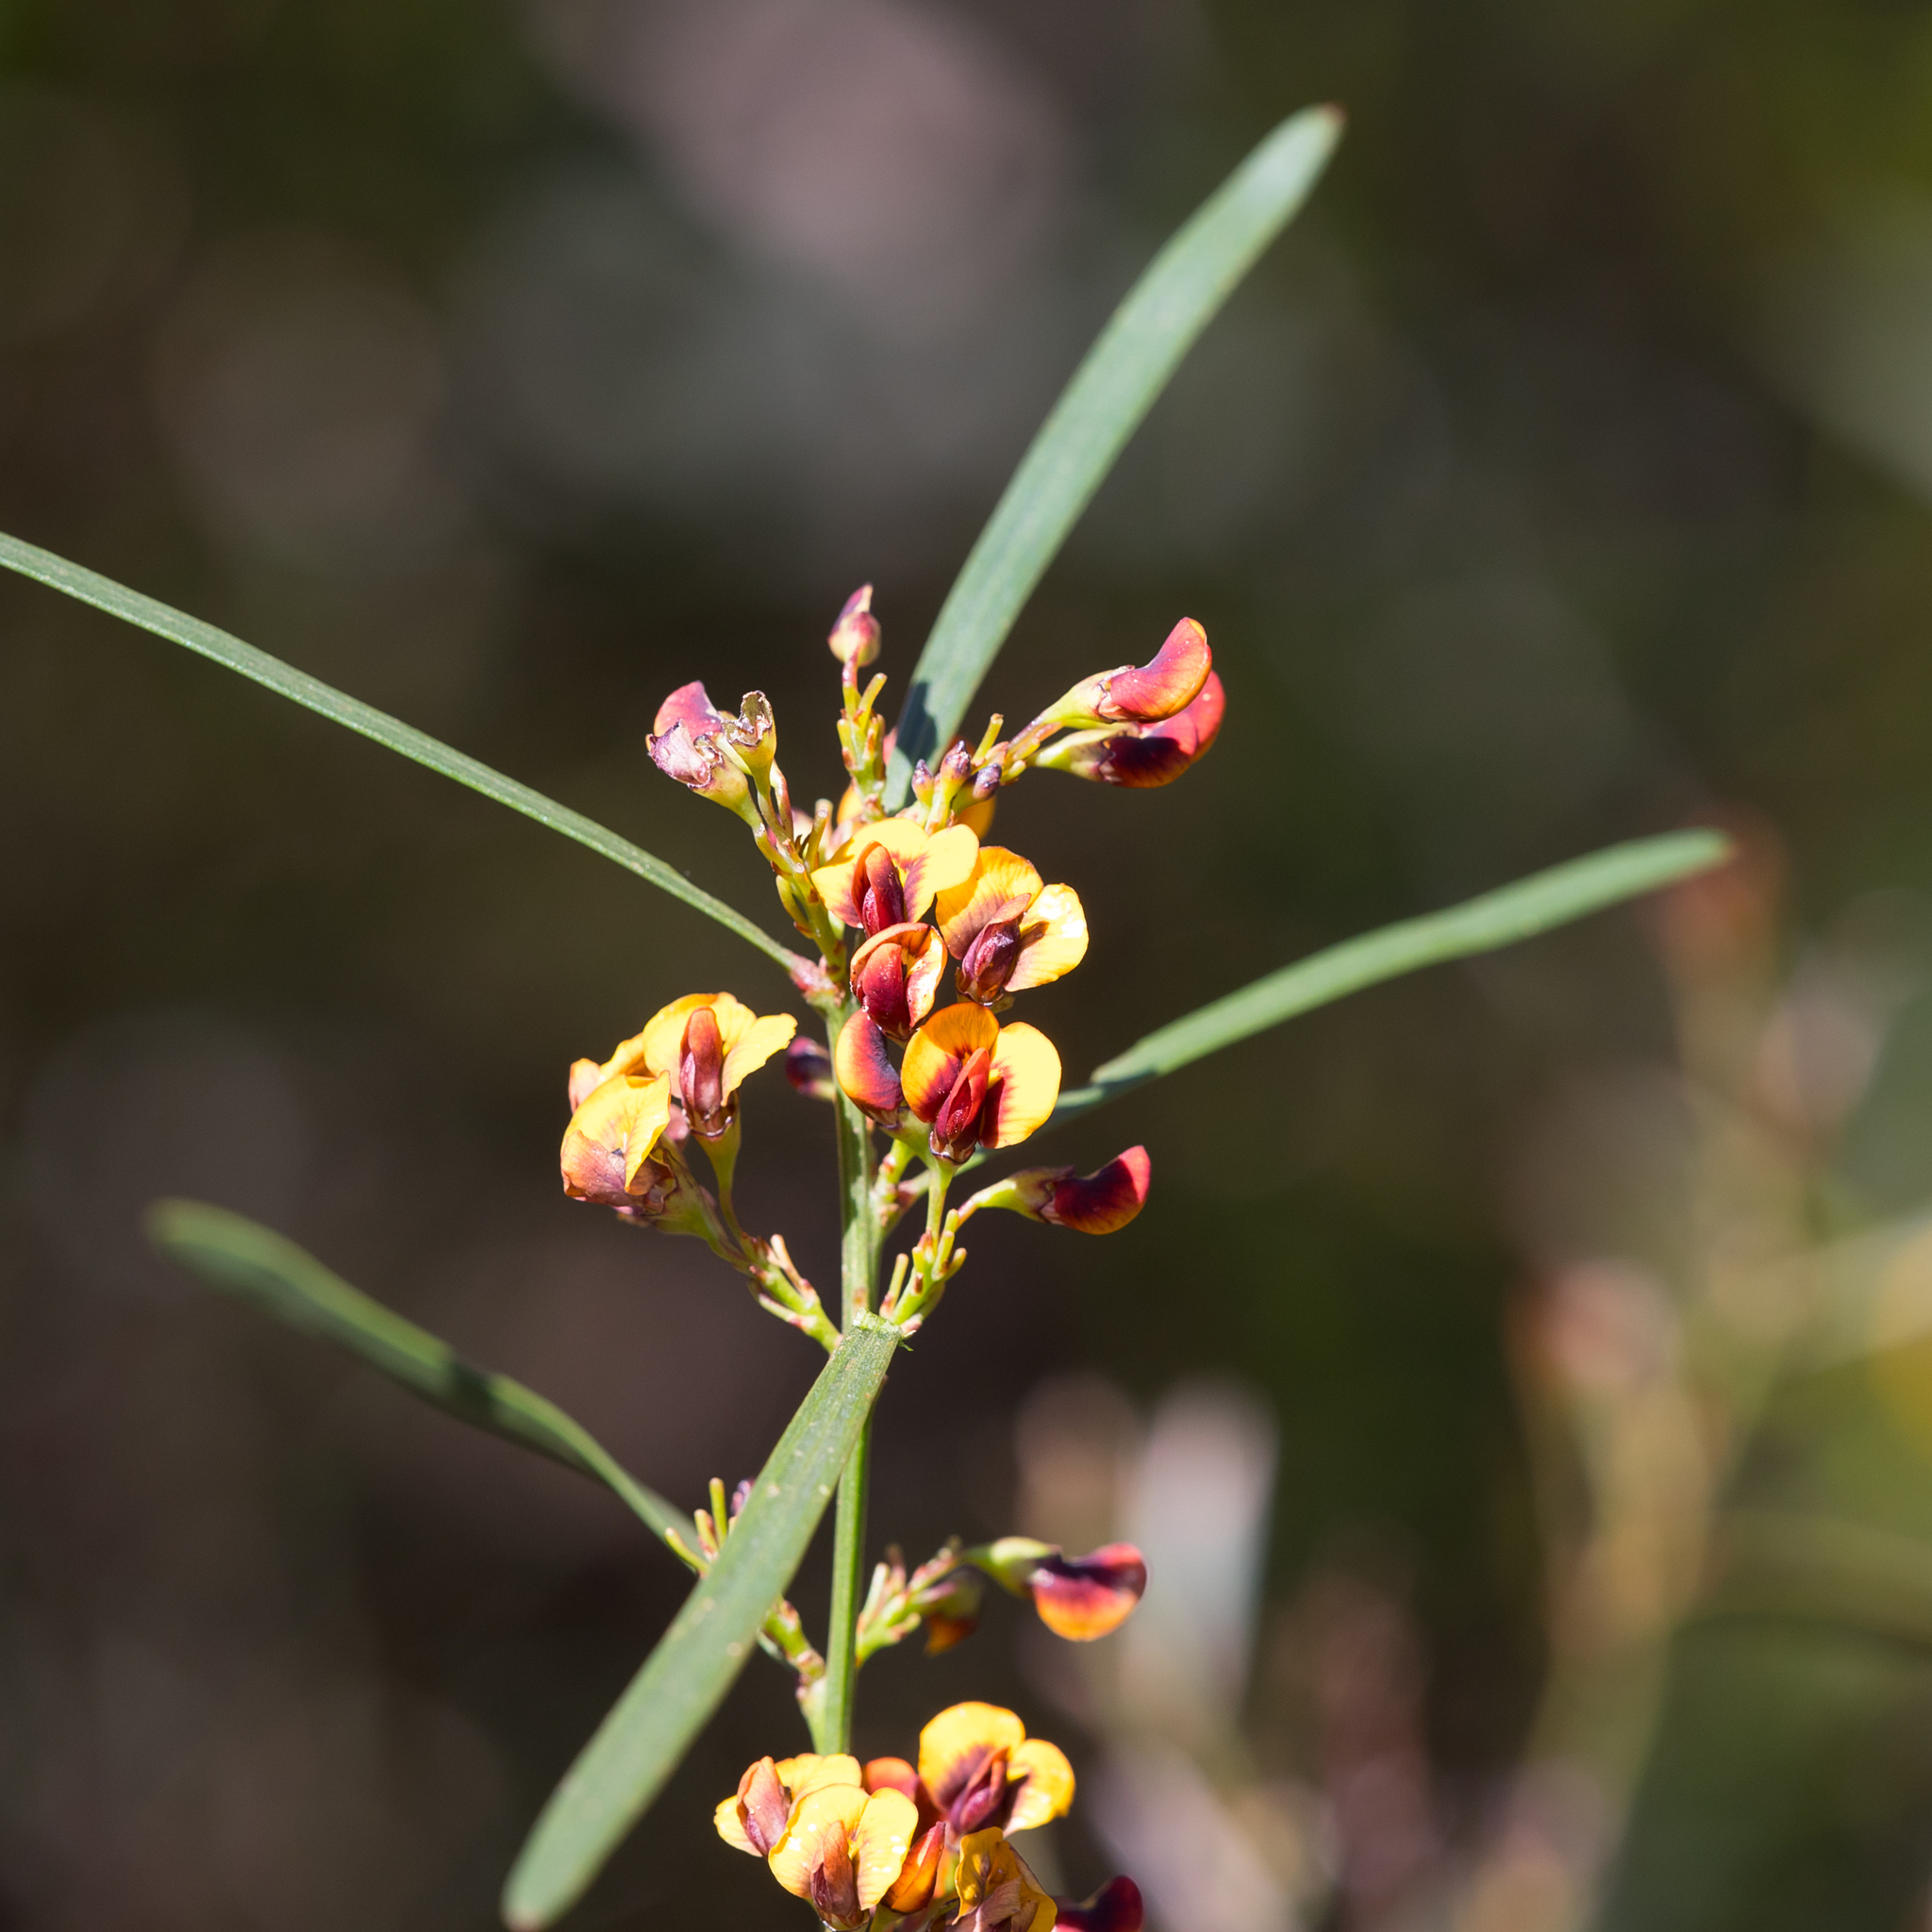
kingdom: Plantae
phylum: Tracheophyta
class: Magnoliopsida
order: Fabales
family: Fabaceae
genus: Daviesia
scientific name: Daviesia leptophylla
